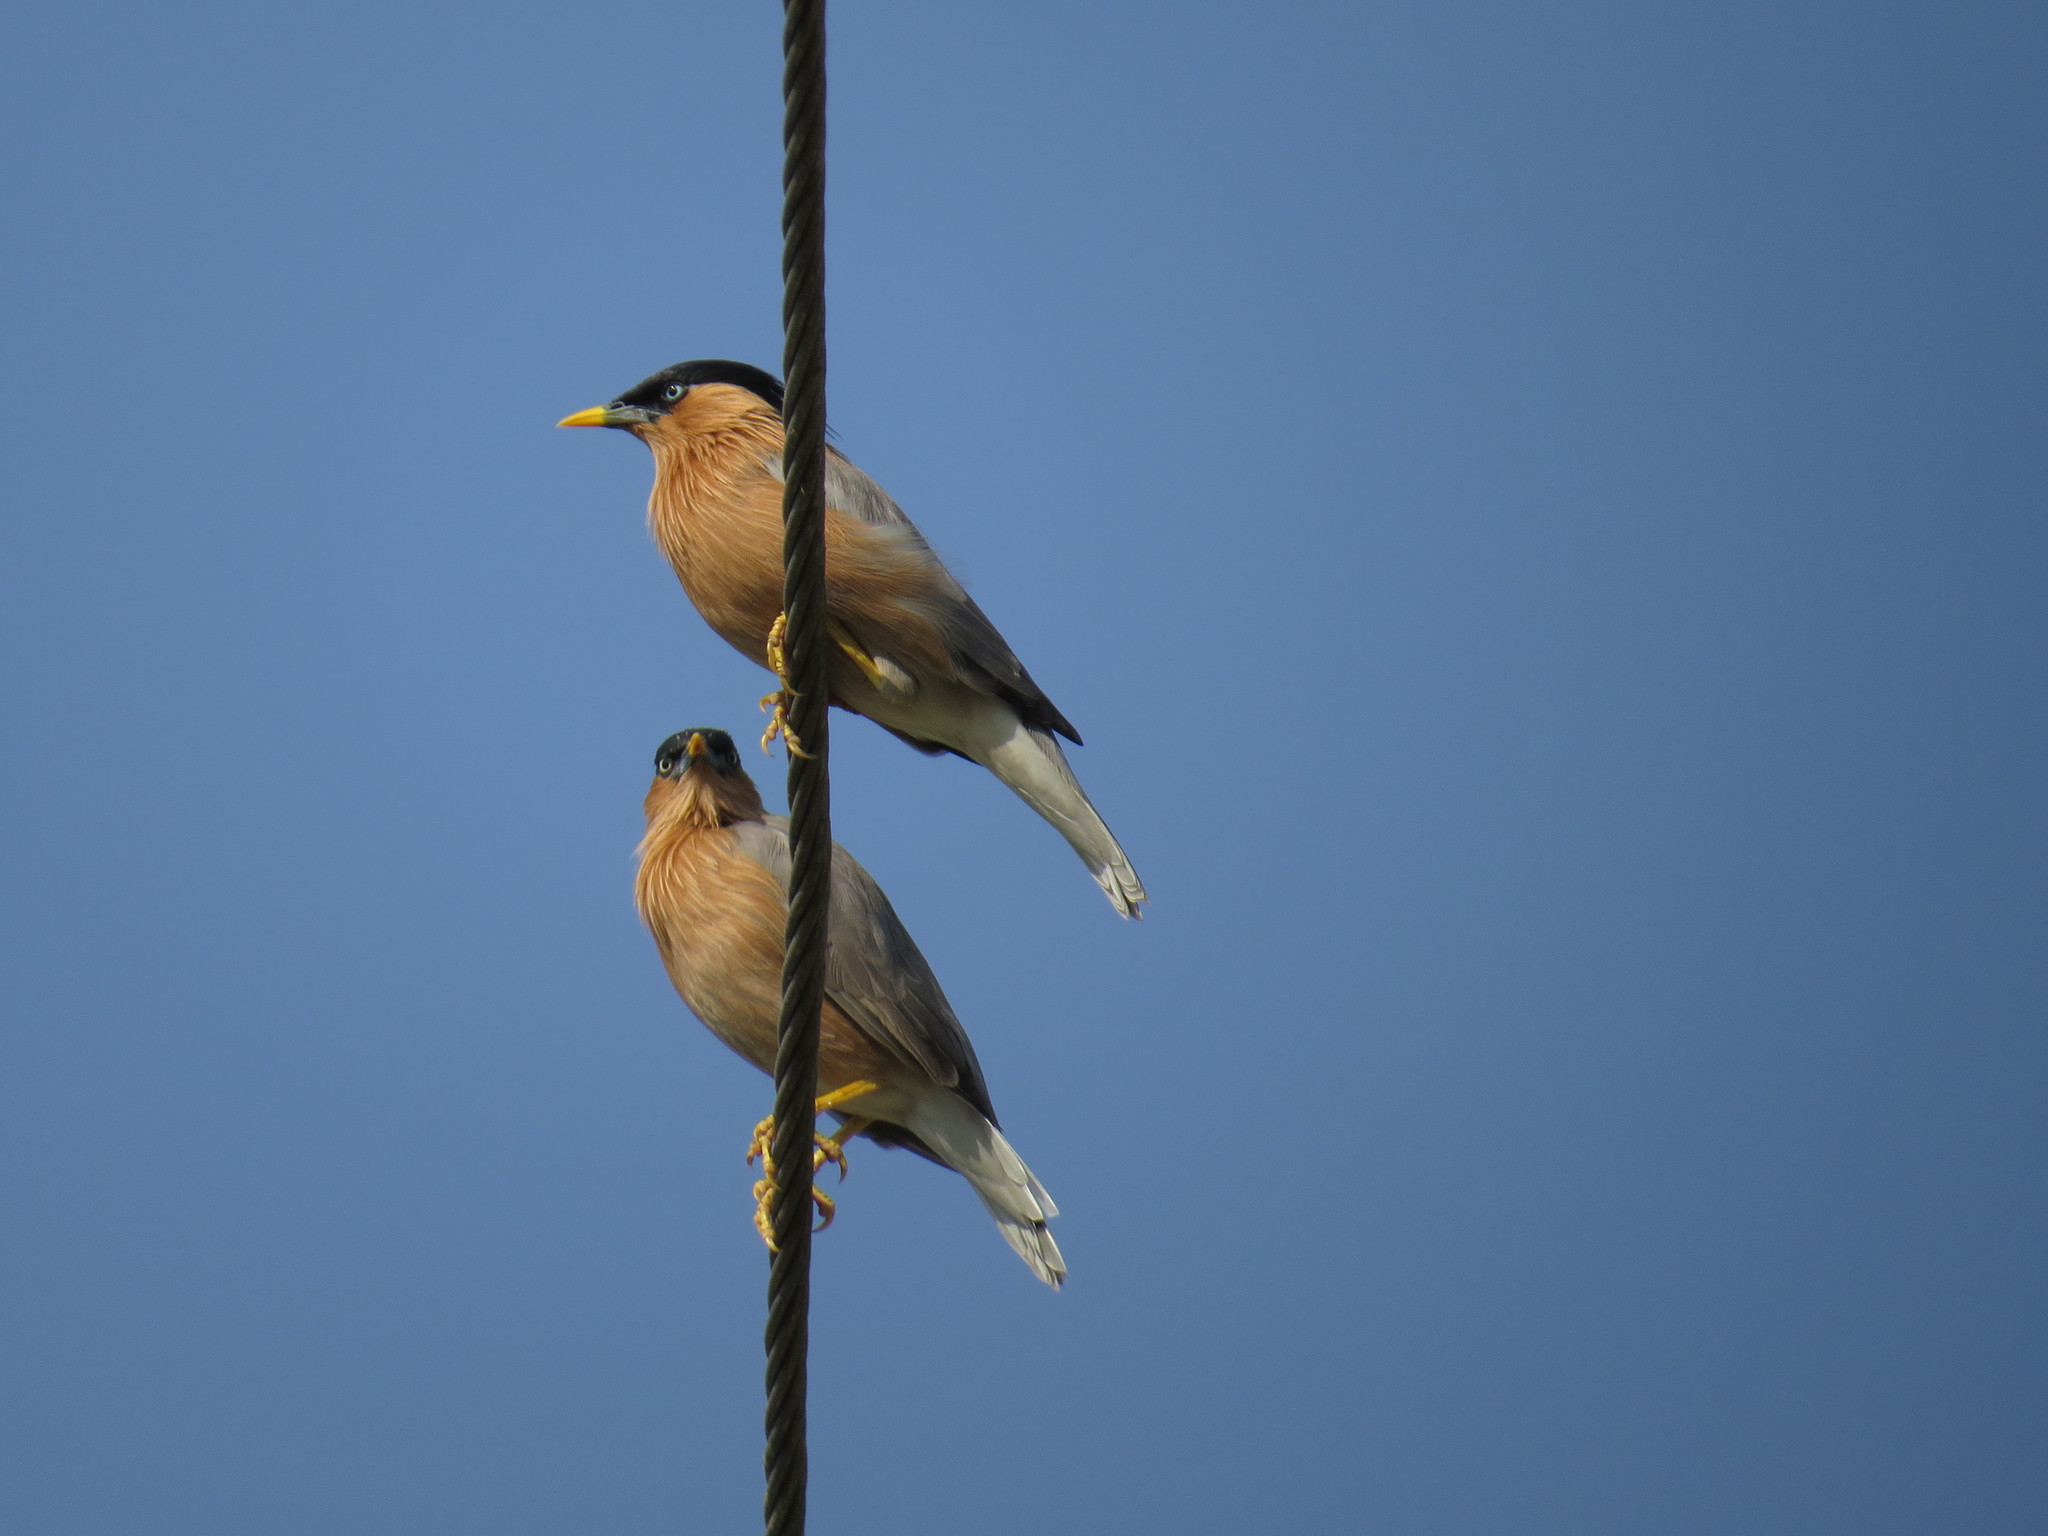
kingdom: Animalia
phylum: Chordata
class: Aves
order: Passeriformes
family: Sturnidae
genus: Sturnia
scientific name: Sturnia pagodarum
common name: Brahminy starling
